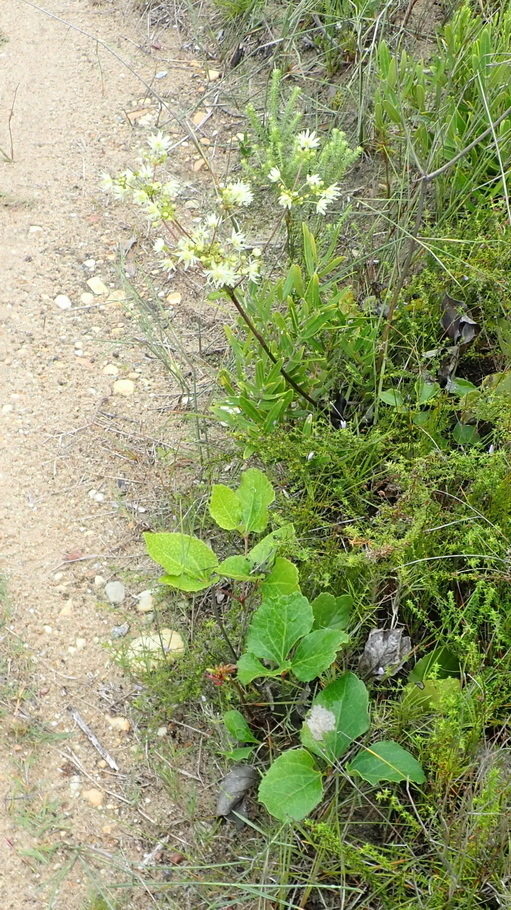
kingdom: Plantae
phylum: Tracheophyta
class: Magnoliopsida
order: Ranunculales
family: Ranunculaceae
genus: Knowltonia
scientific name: Knowltonia vesicatoria
